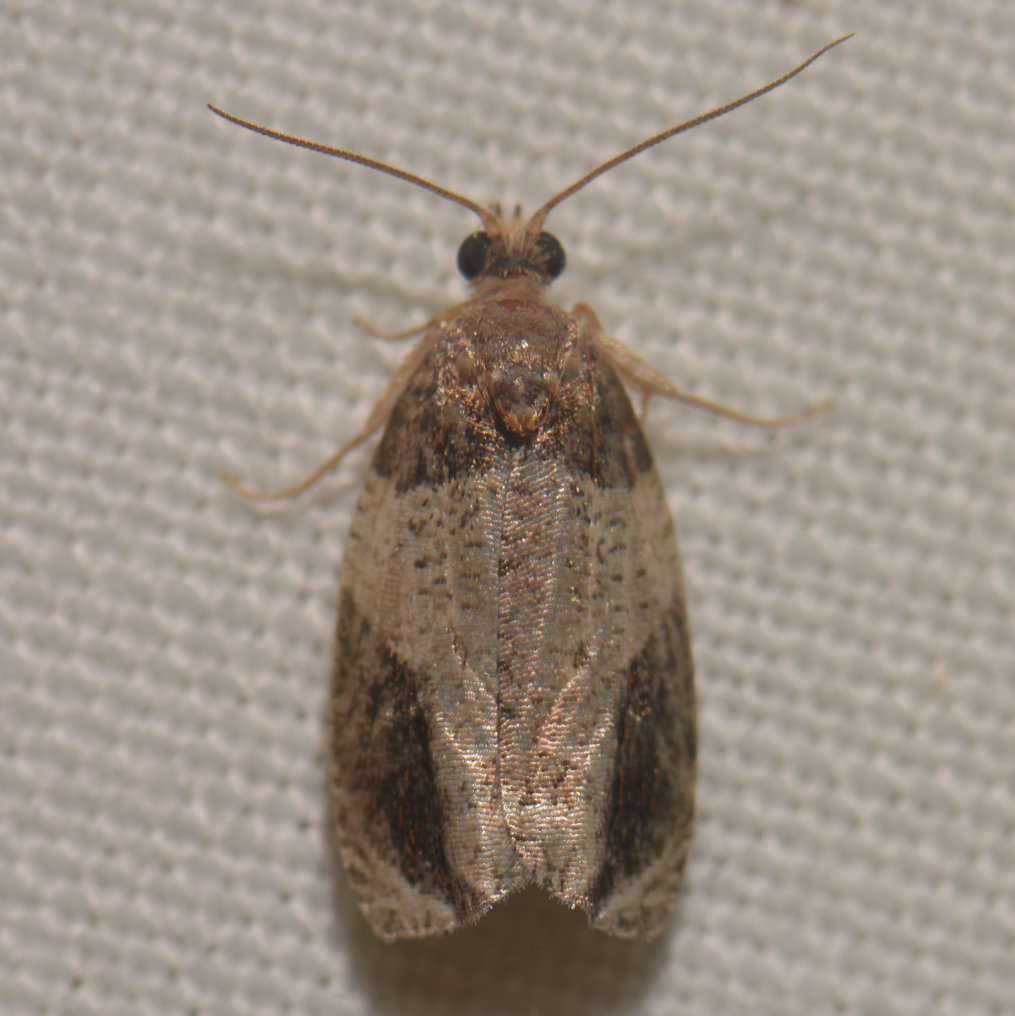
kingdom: Animalia
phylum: Arthropoda
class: Insecta
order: Lepidoptera
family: Tortricidae
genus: Olethreutes
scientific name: Olethreutes ferriferana
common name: Hydrangea leaftier moth
